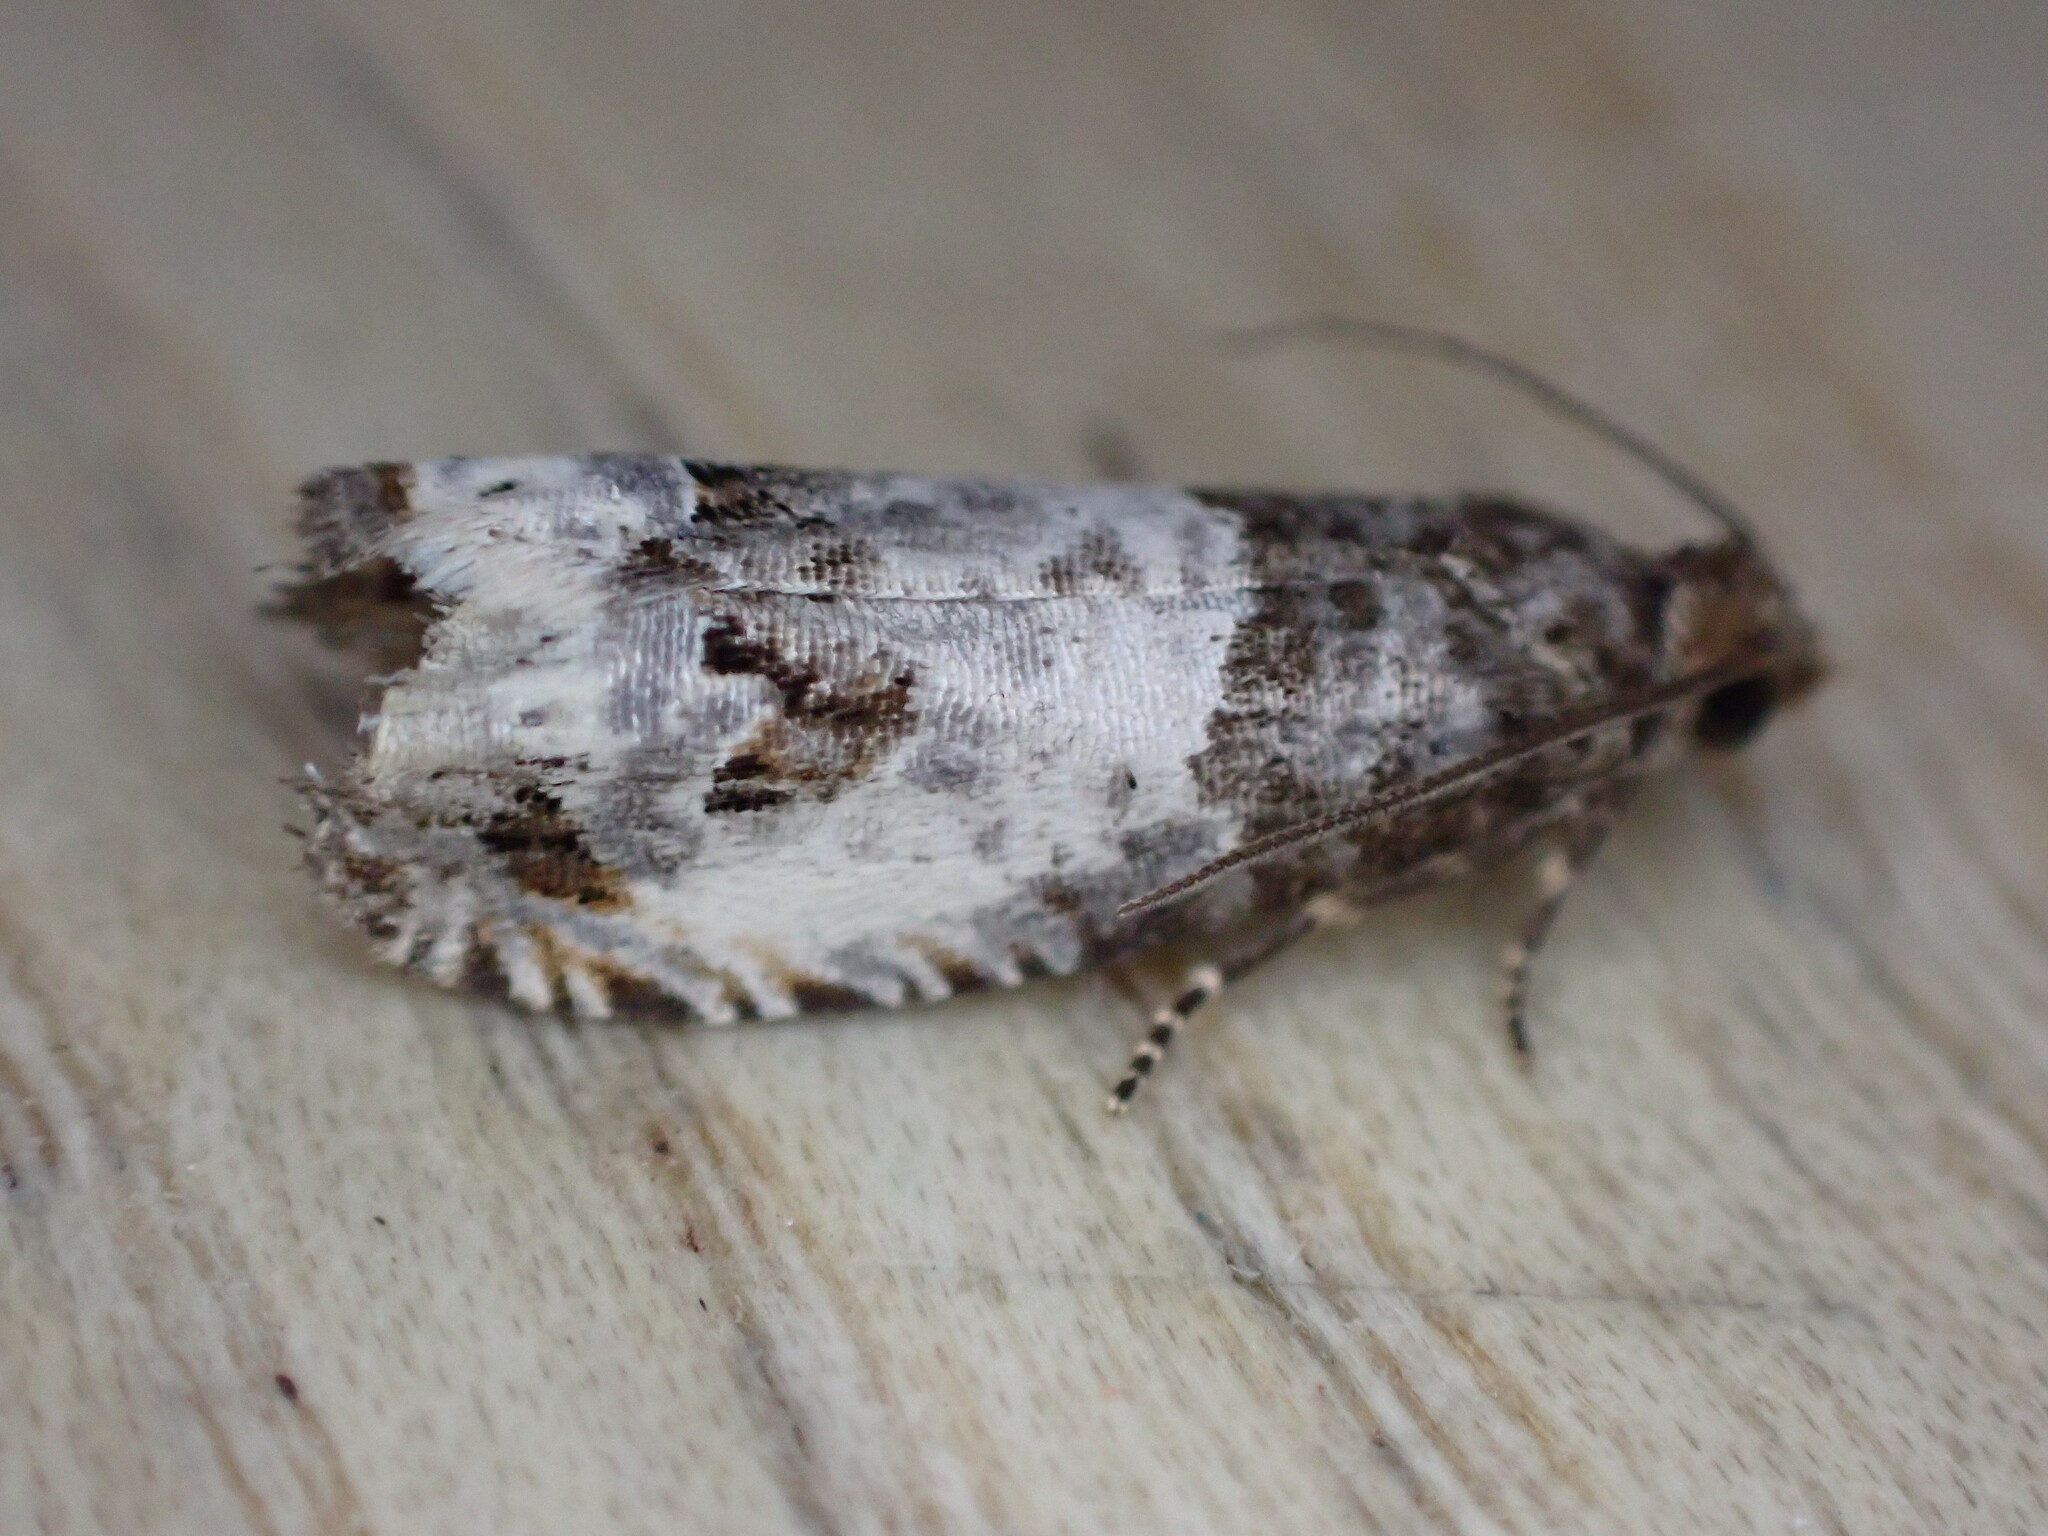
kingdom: Animalia
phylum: Arthropoda
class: Insecta
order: Lepidoptera
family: Tortricidae
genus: Notocelia
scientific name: Notocelia rosaecolana
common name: Common rose bell
